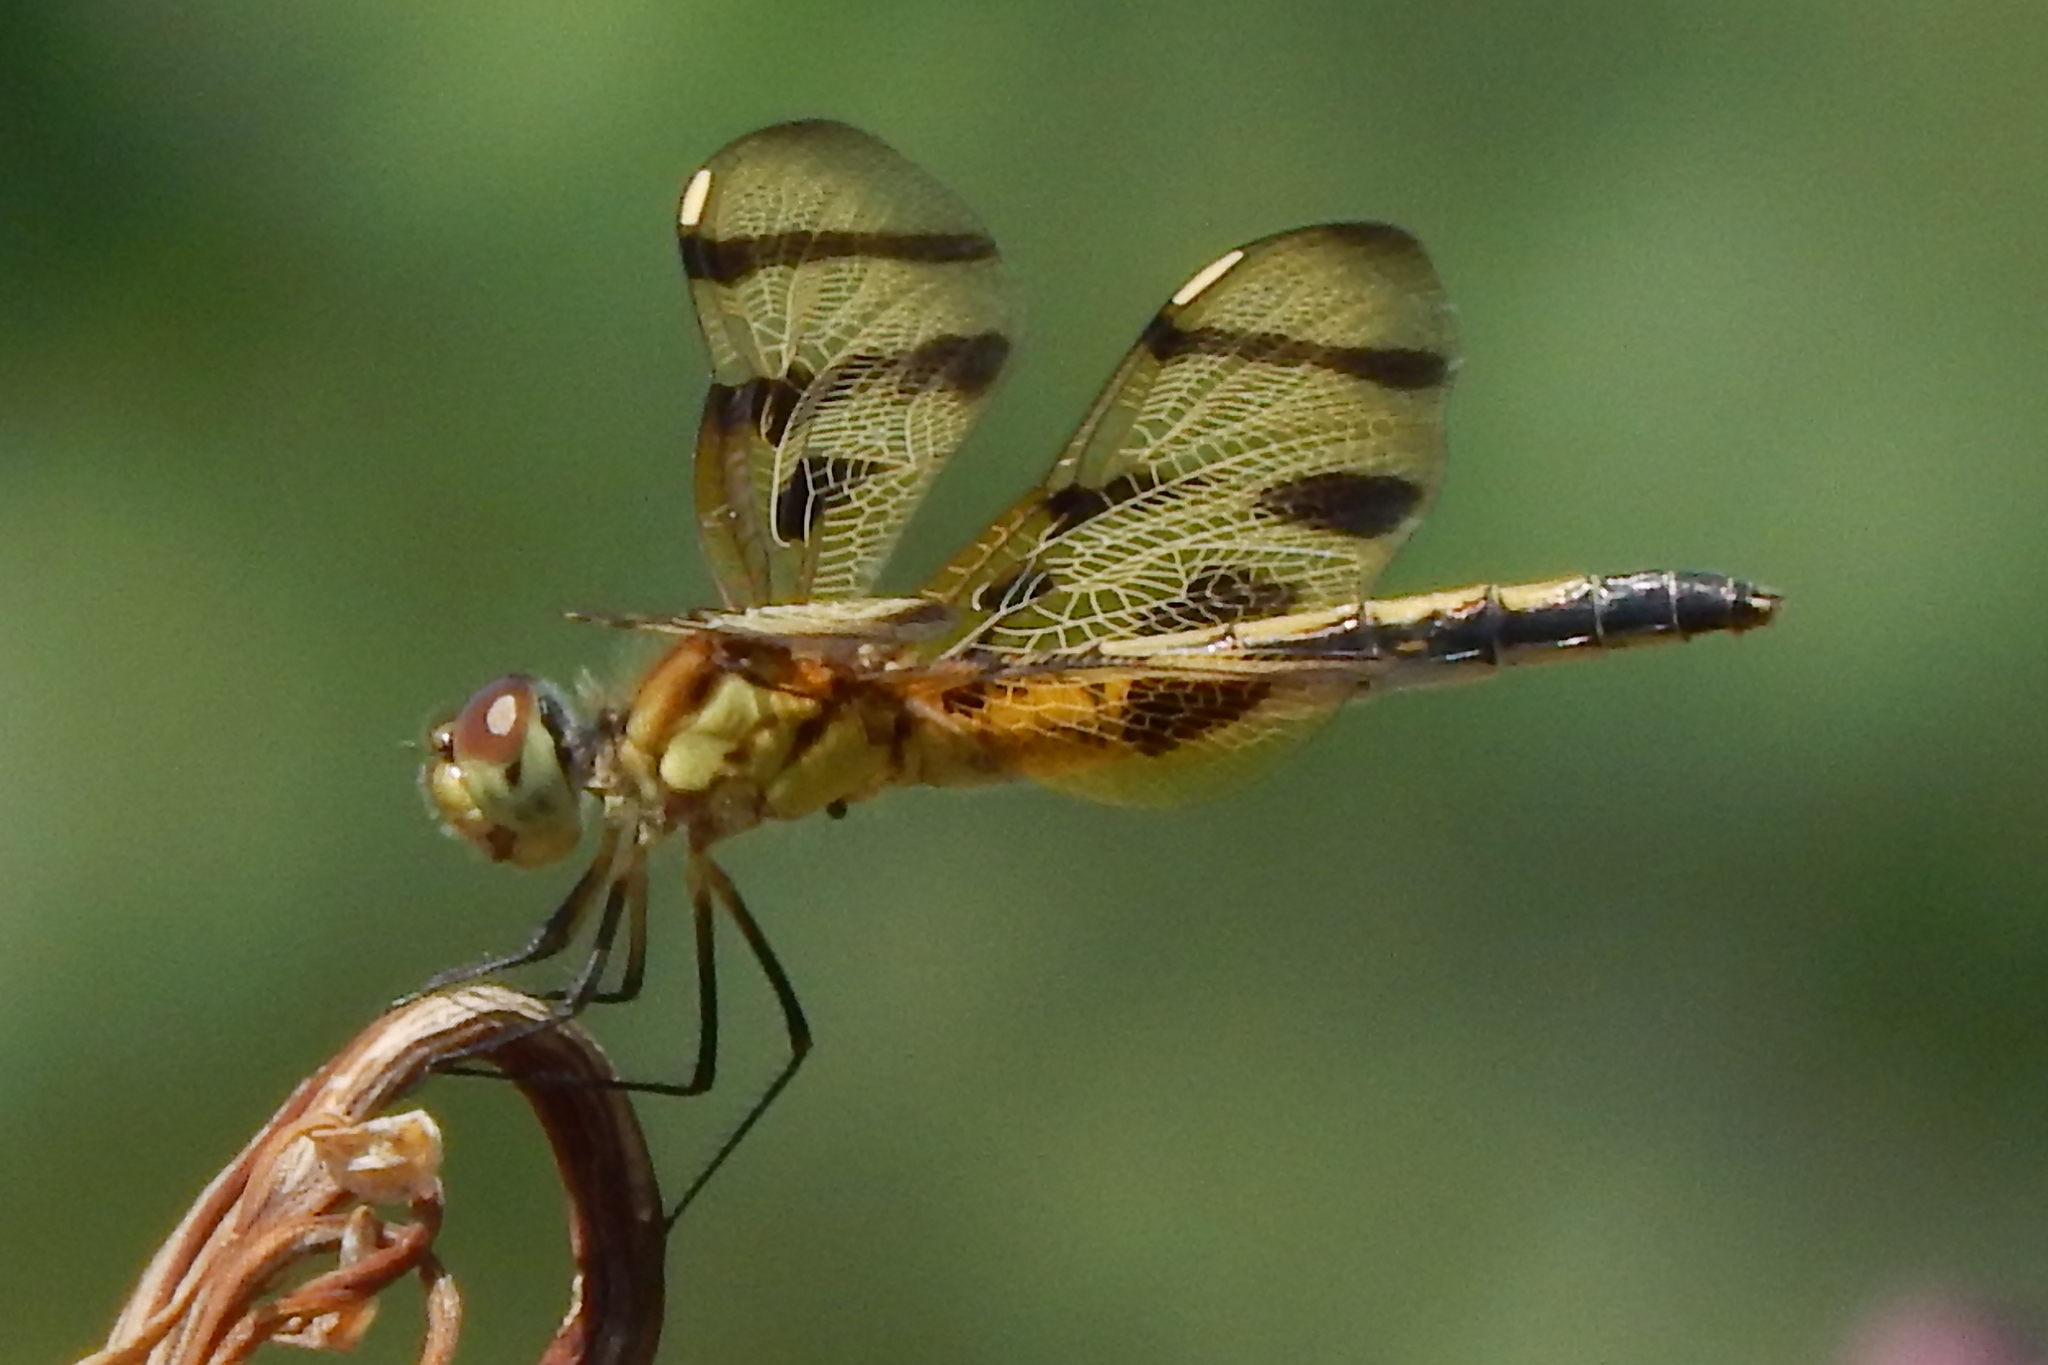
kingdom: Animalia
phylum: Arthropoda
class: Insecta
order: Odonata
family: Libellulidae
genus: Celithemis
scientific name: Celithemis eponina
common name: Halloween pennant
